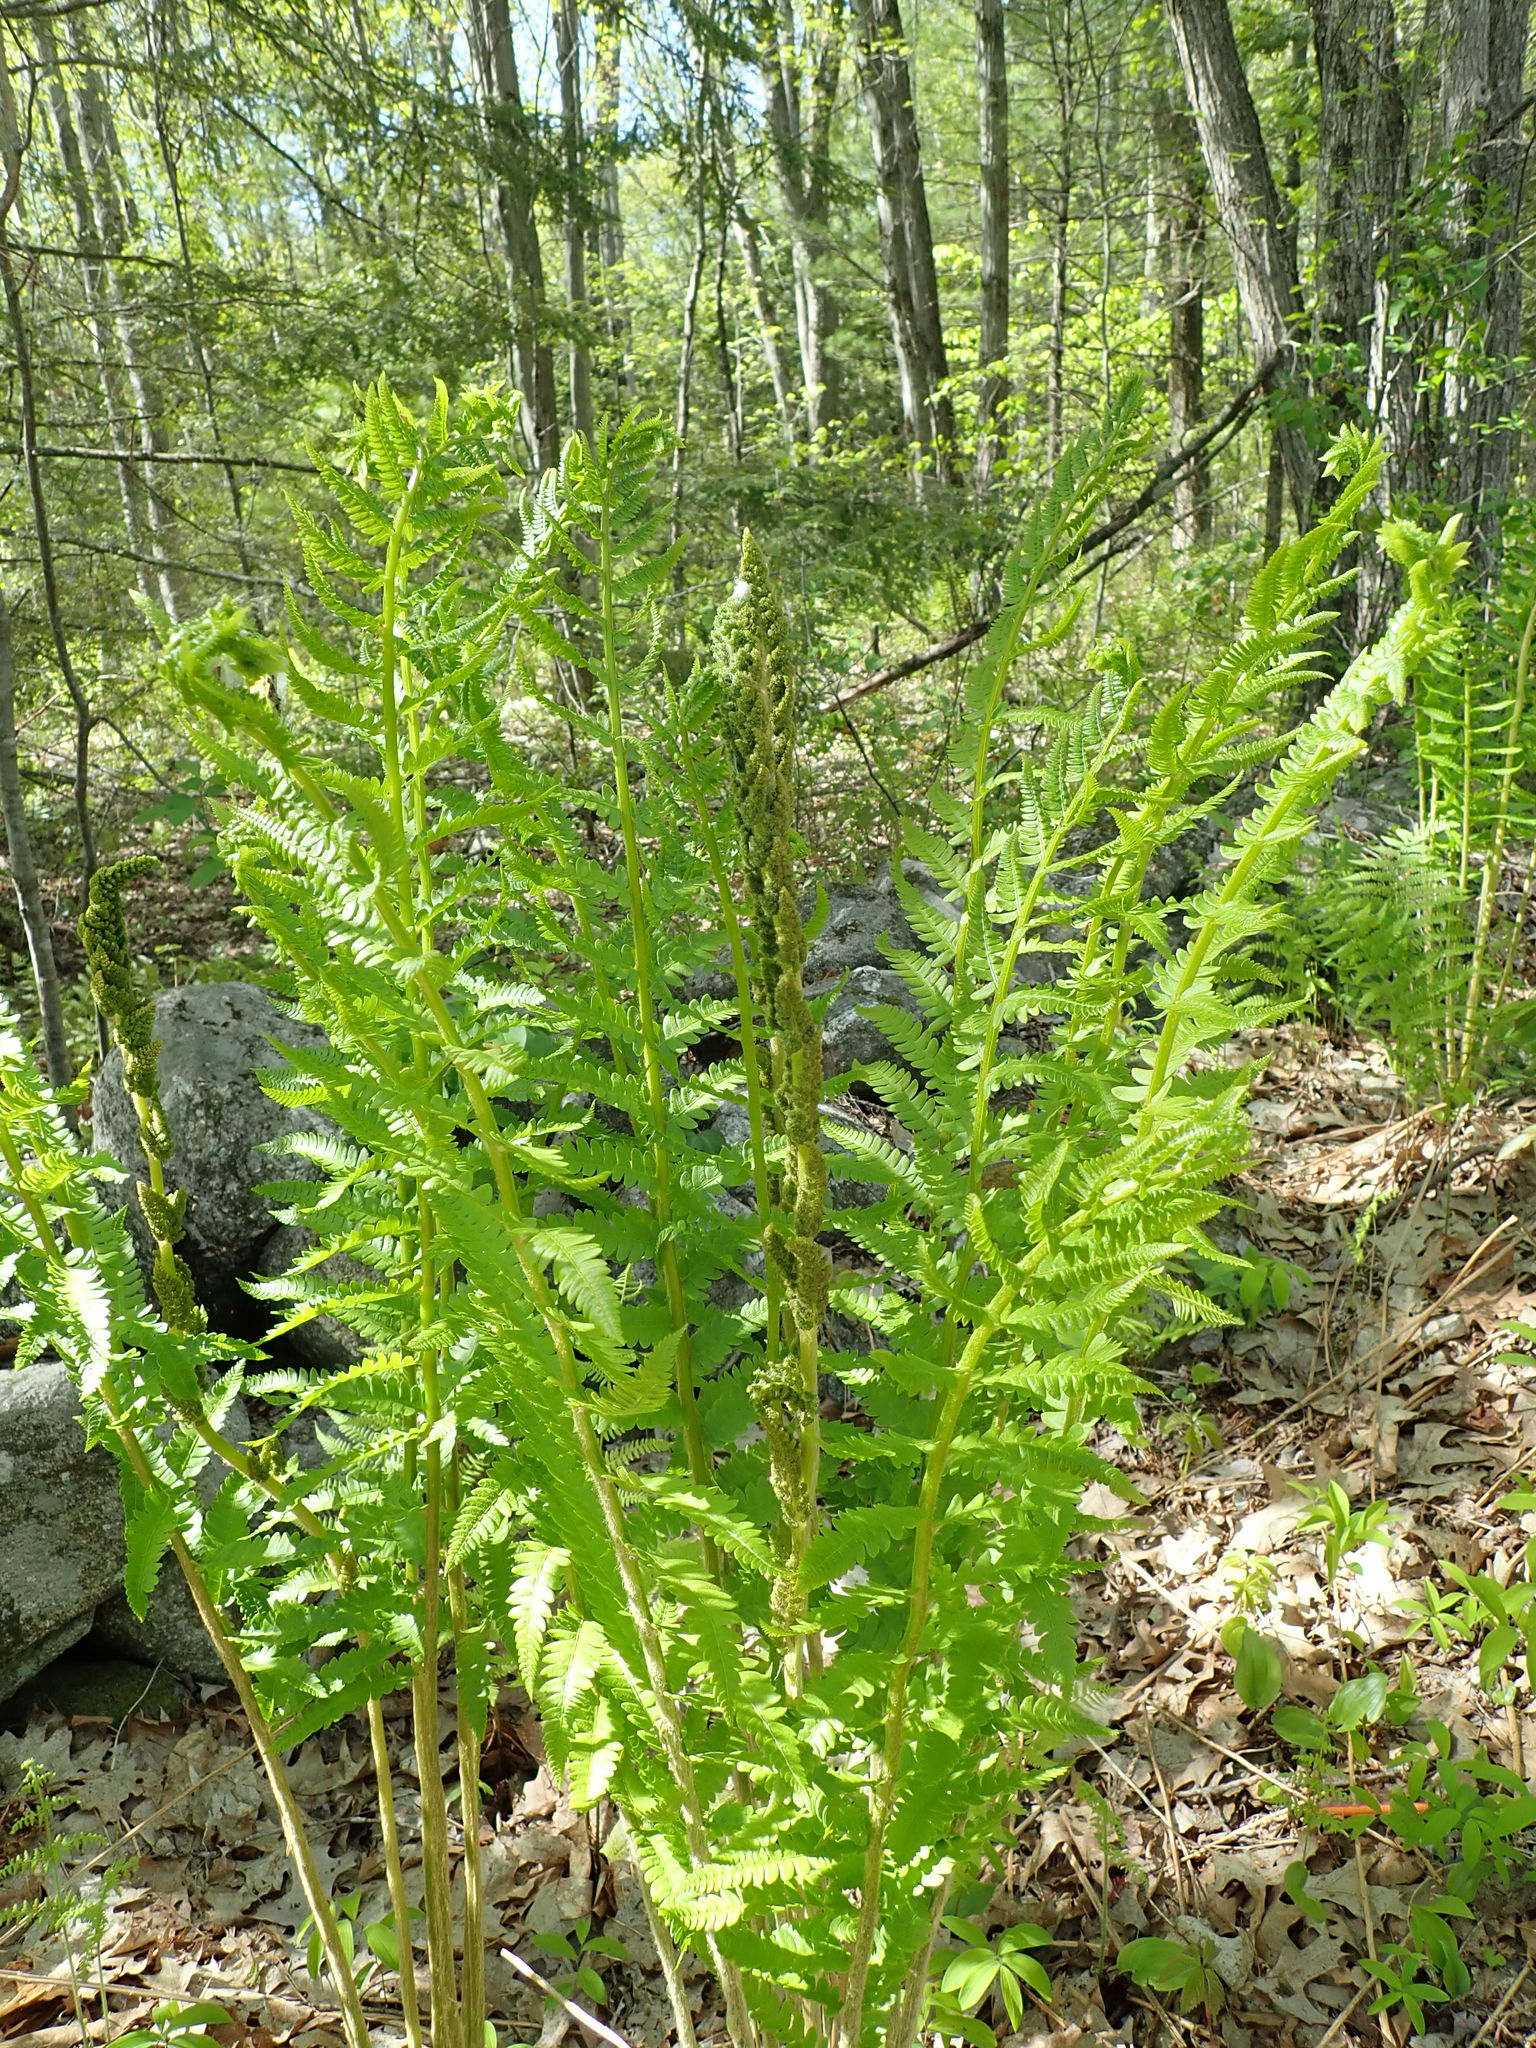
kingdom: Plantae
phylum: Tracheophyta
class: Polypodiopsida
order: Osmundales
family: Osmundaceae
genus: Osmundastrum
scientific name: Osmundastrum cinnamomeum
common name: Cinnamon fern
